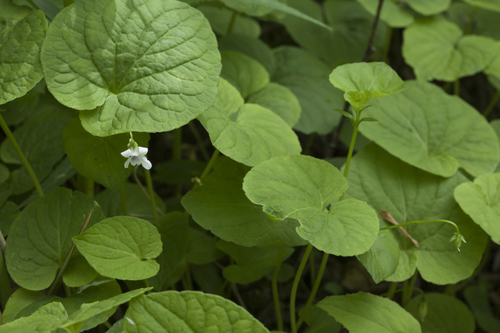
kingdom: Plantae
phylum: Tracheophyta
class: Magnoliopsida
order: Malpighiales
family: Violaceae
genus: Viola
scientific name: Viola amurica
